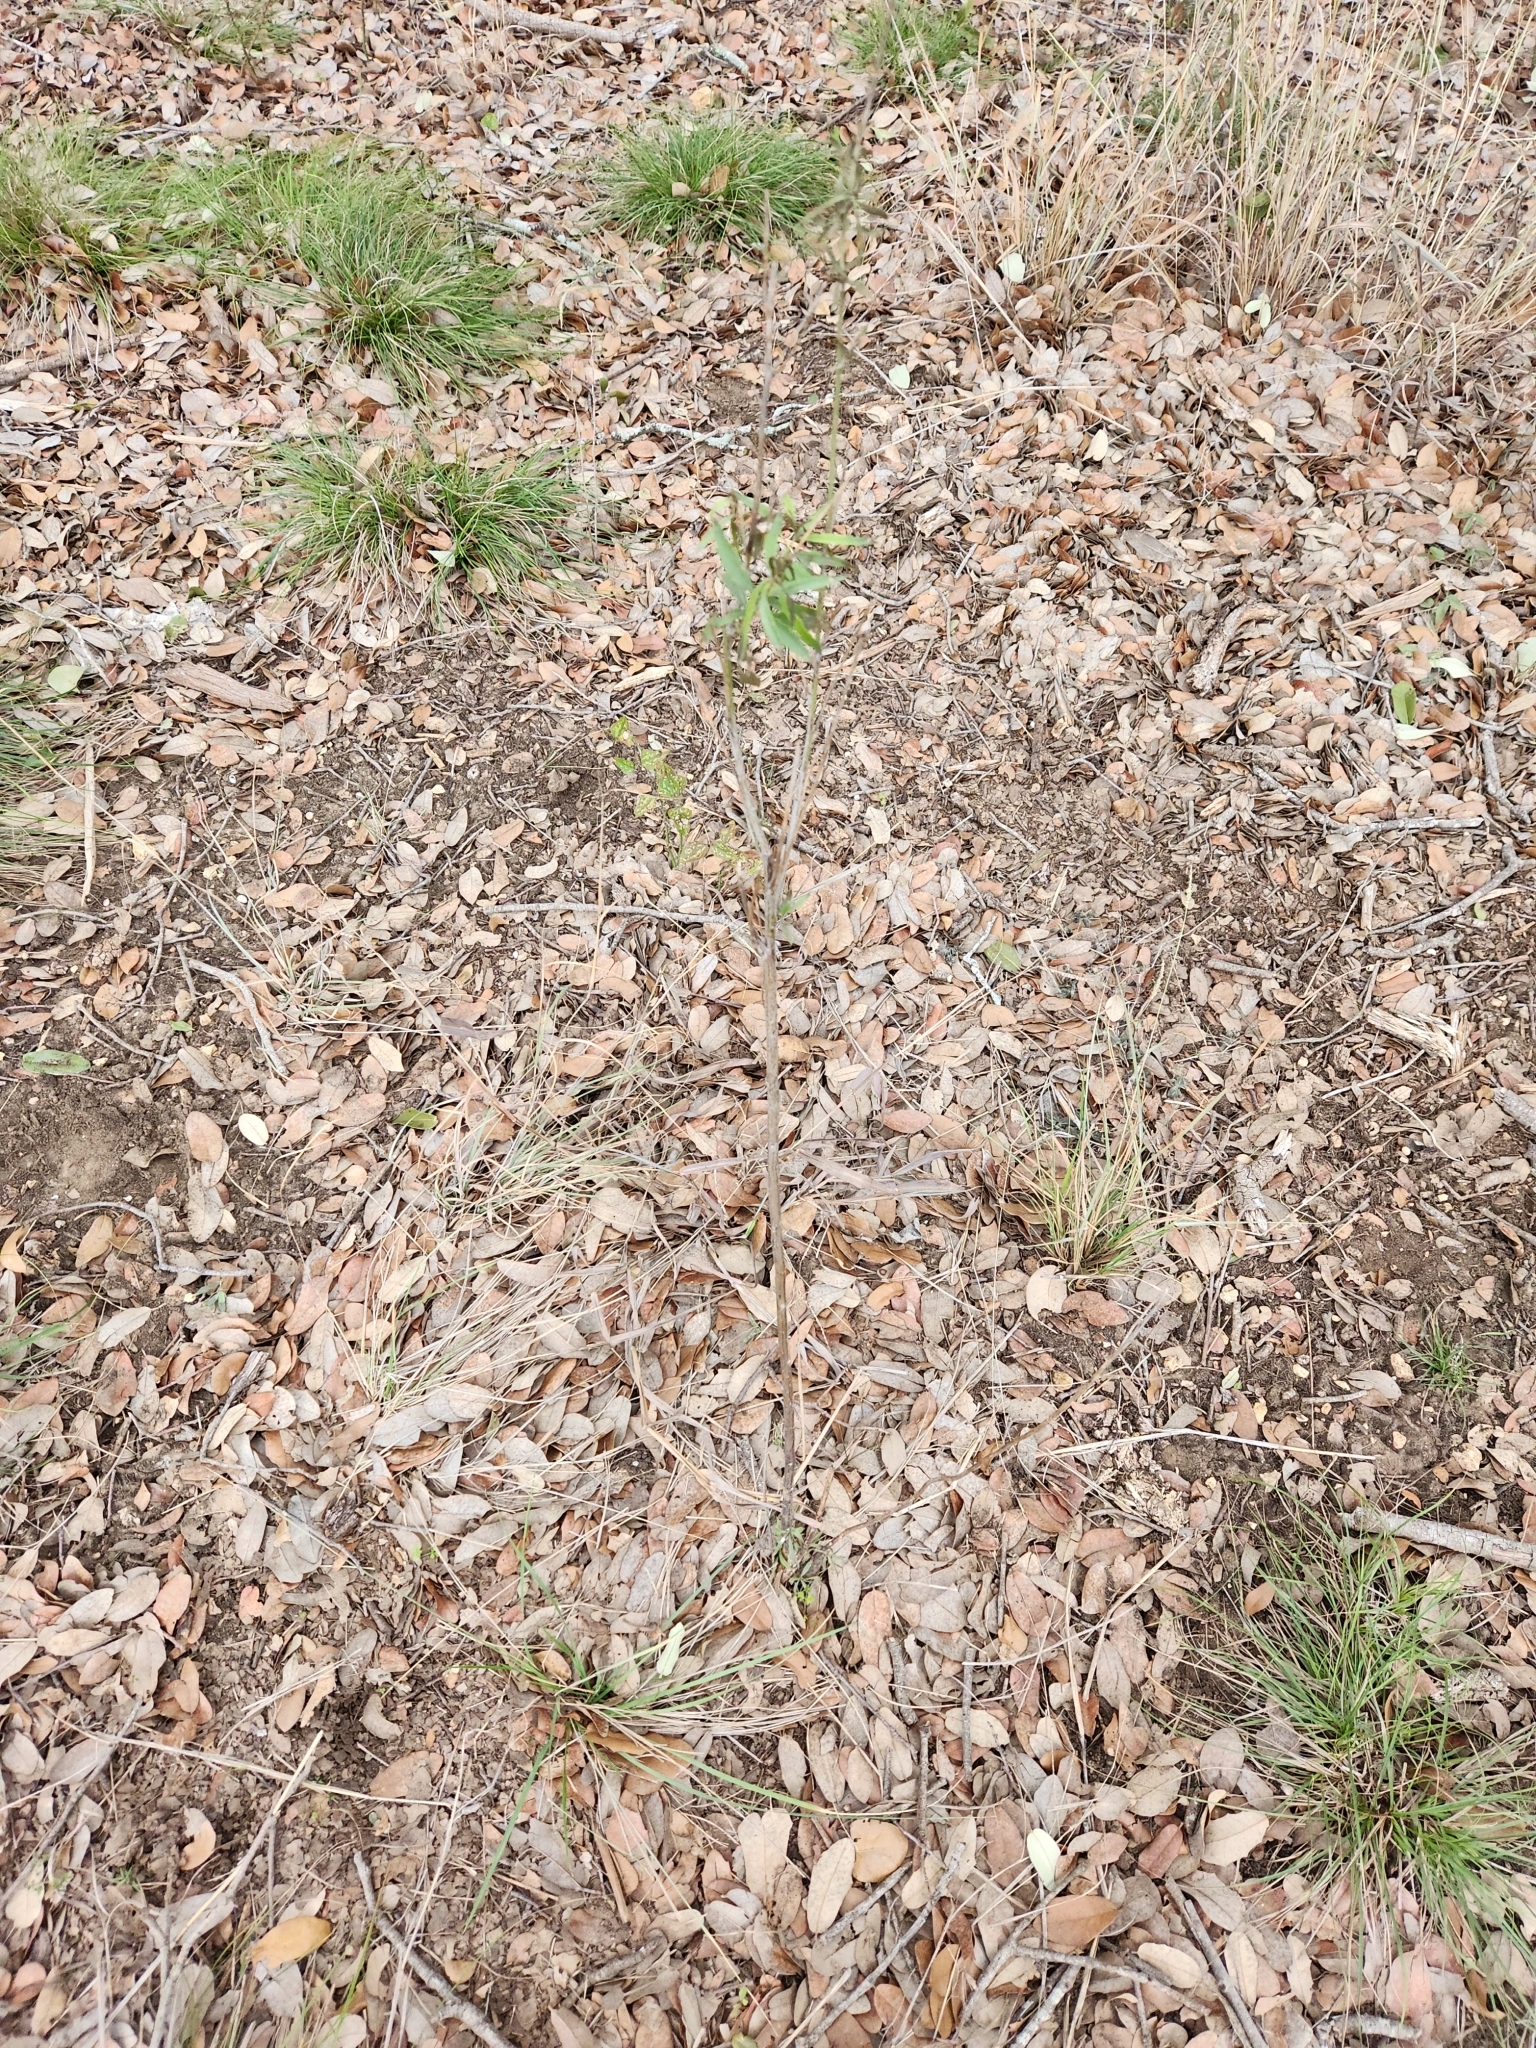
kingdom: Plantae
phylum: Tracheophyta
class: Magnoliopsida
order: Asterales
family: Asteraceae
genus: Baccharis
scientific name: Baccharis neglecta
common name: Roosevelt-weed
